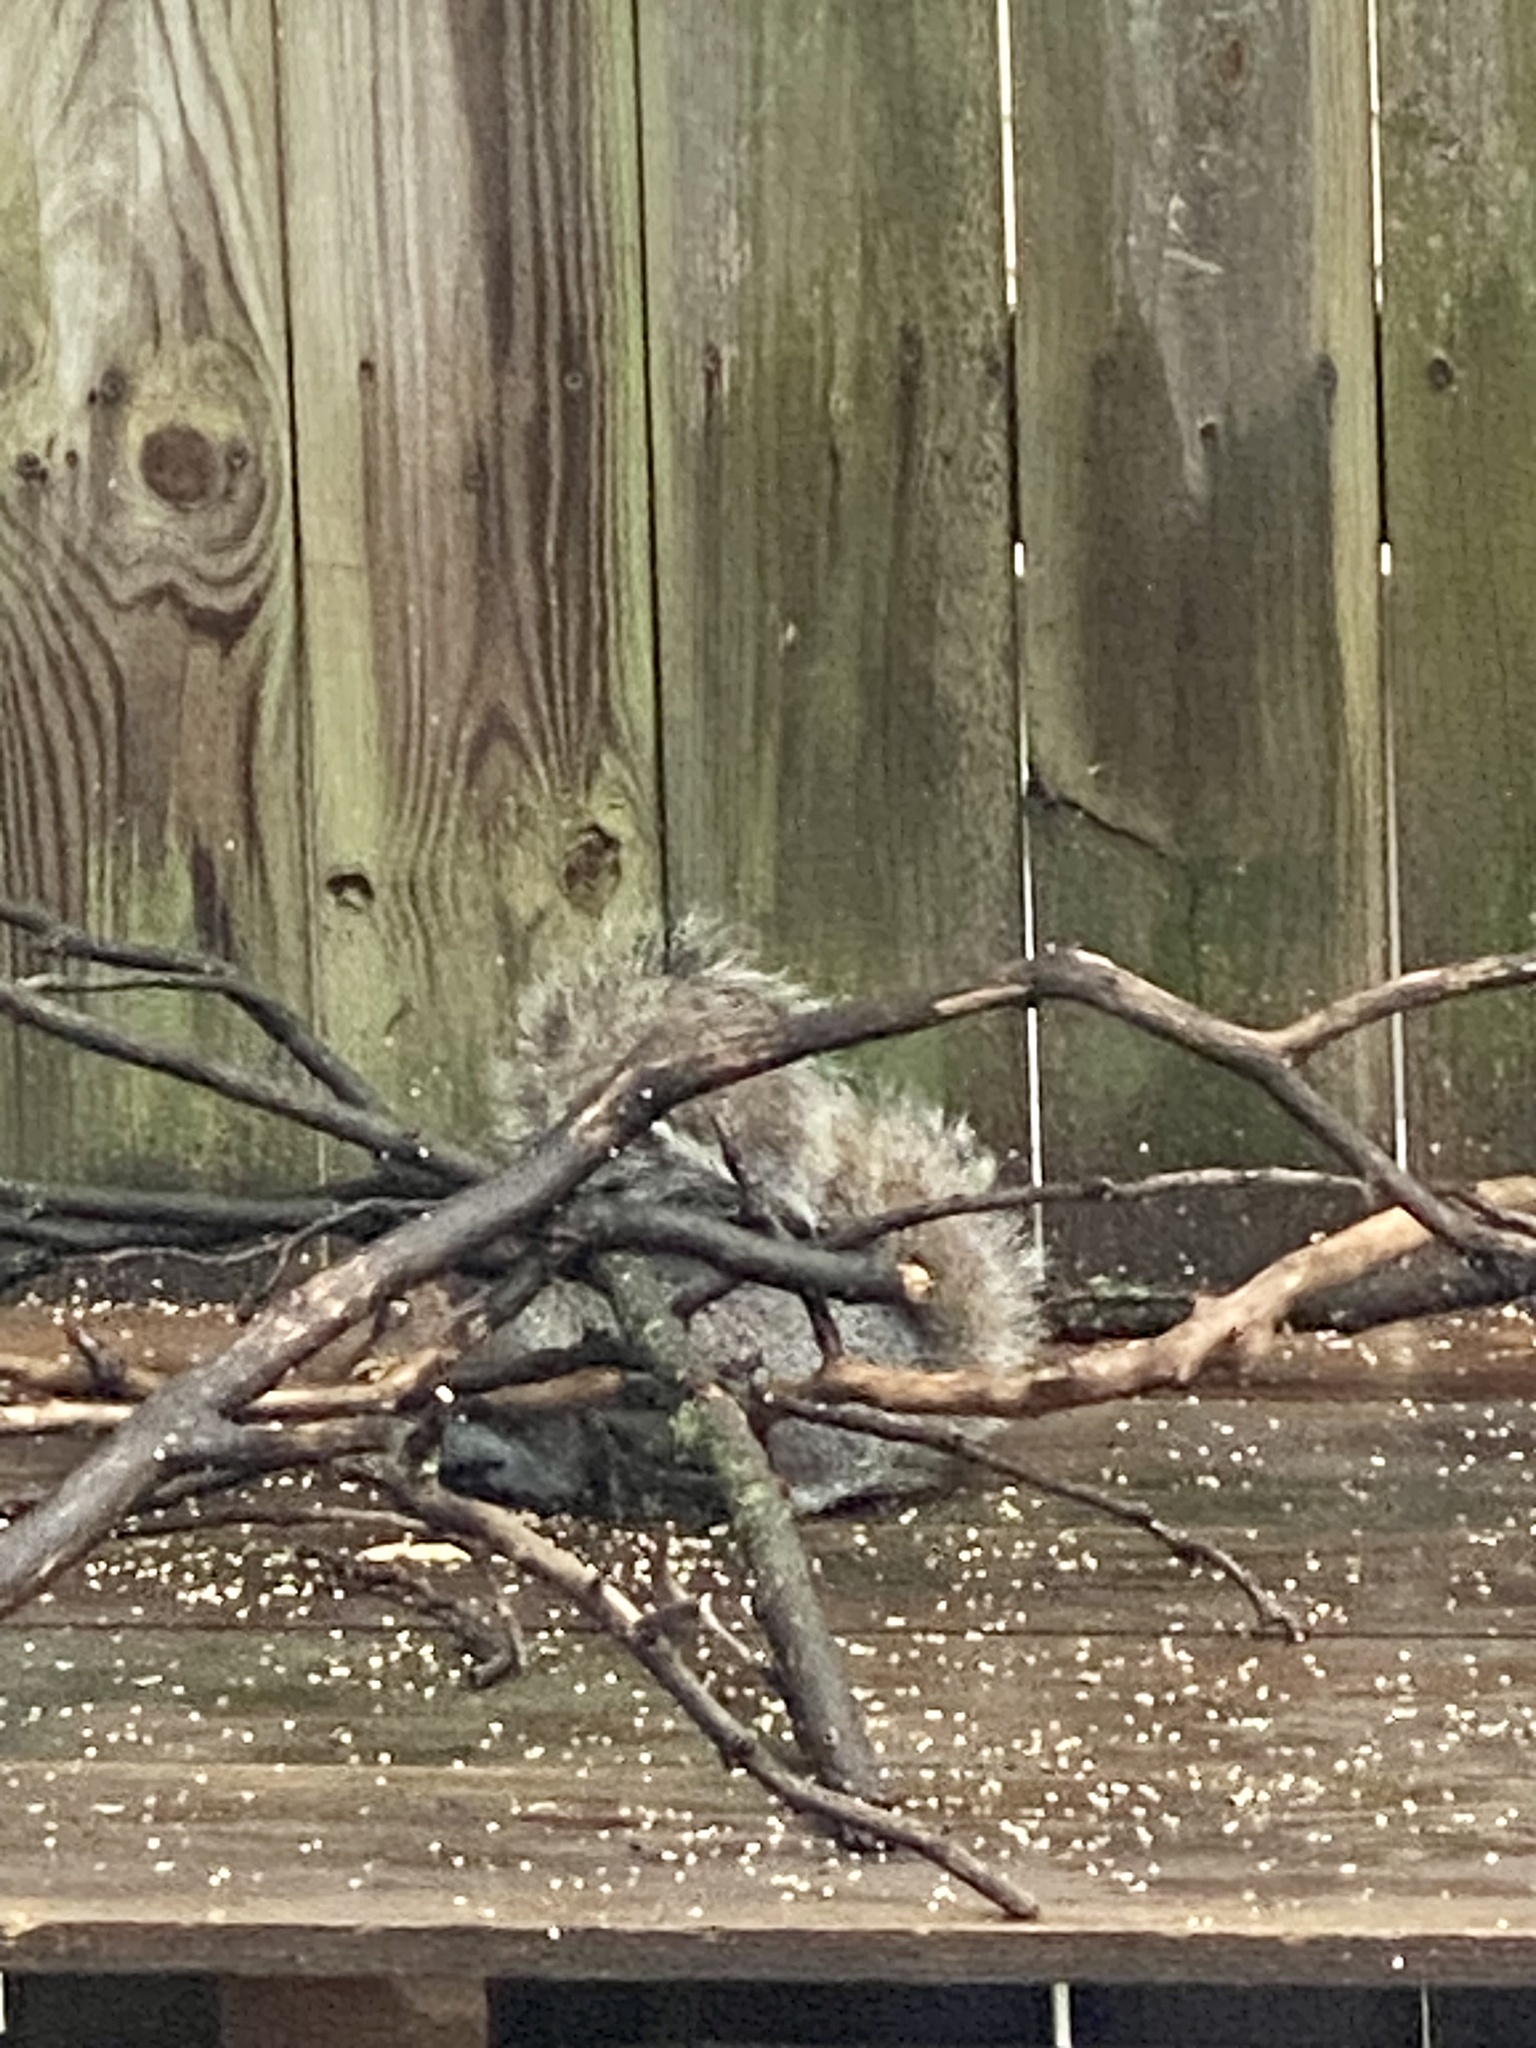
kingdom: Animalia
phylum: Chordata
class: Mammalia
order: Rodentia
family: Sciuridae
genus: Sciurus
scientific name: Sciurus carolinensis
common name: Eastern gray squirrel
